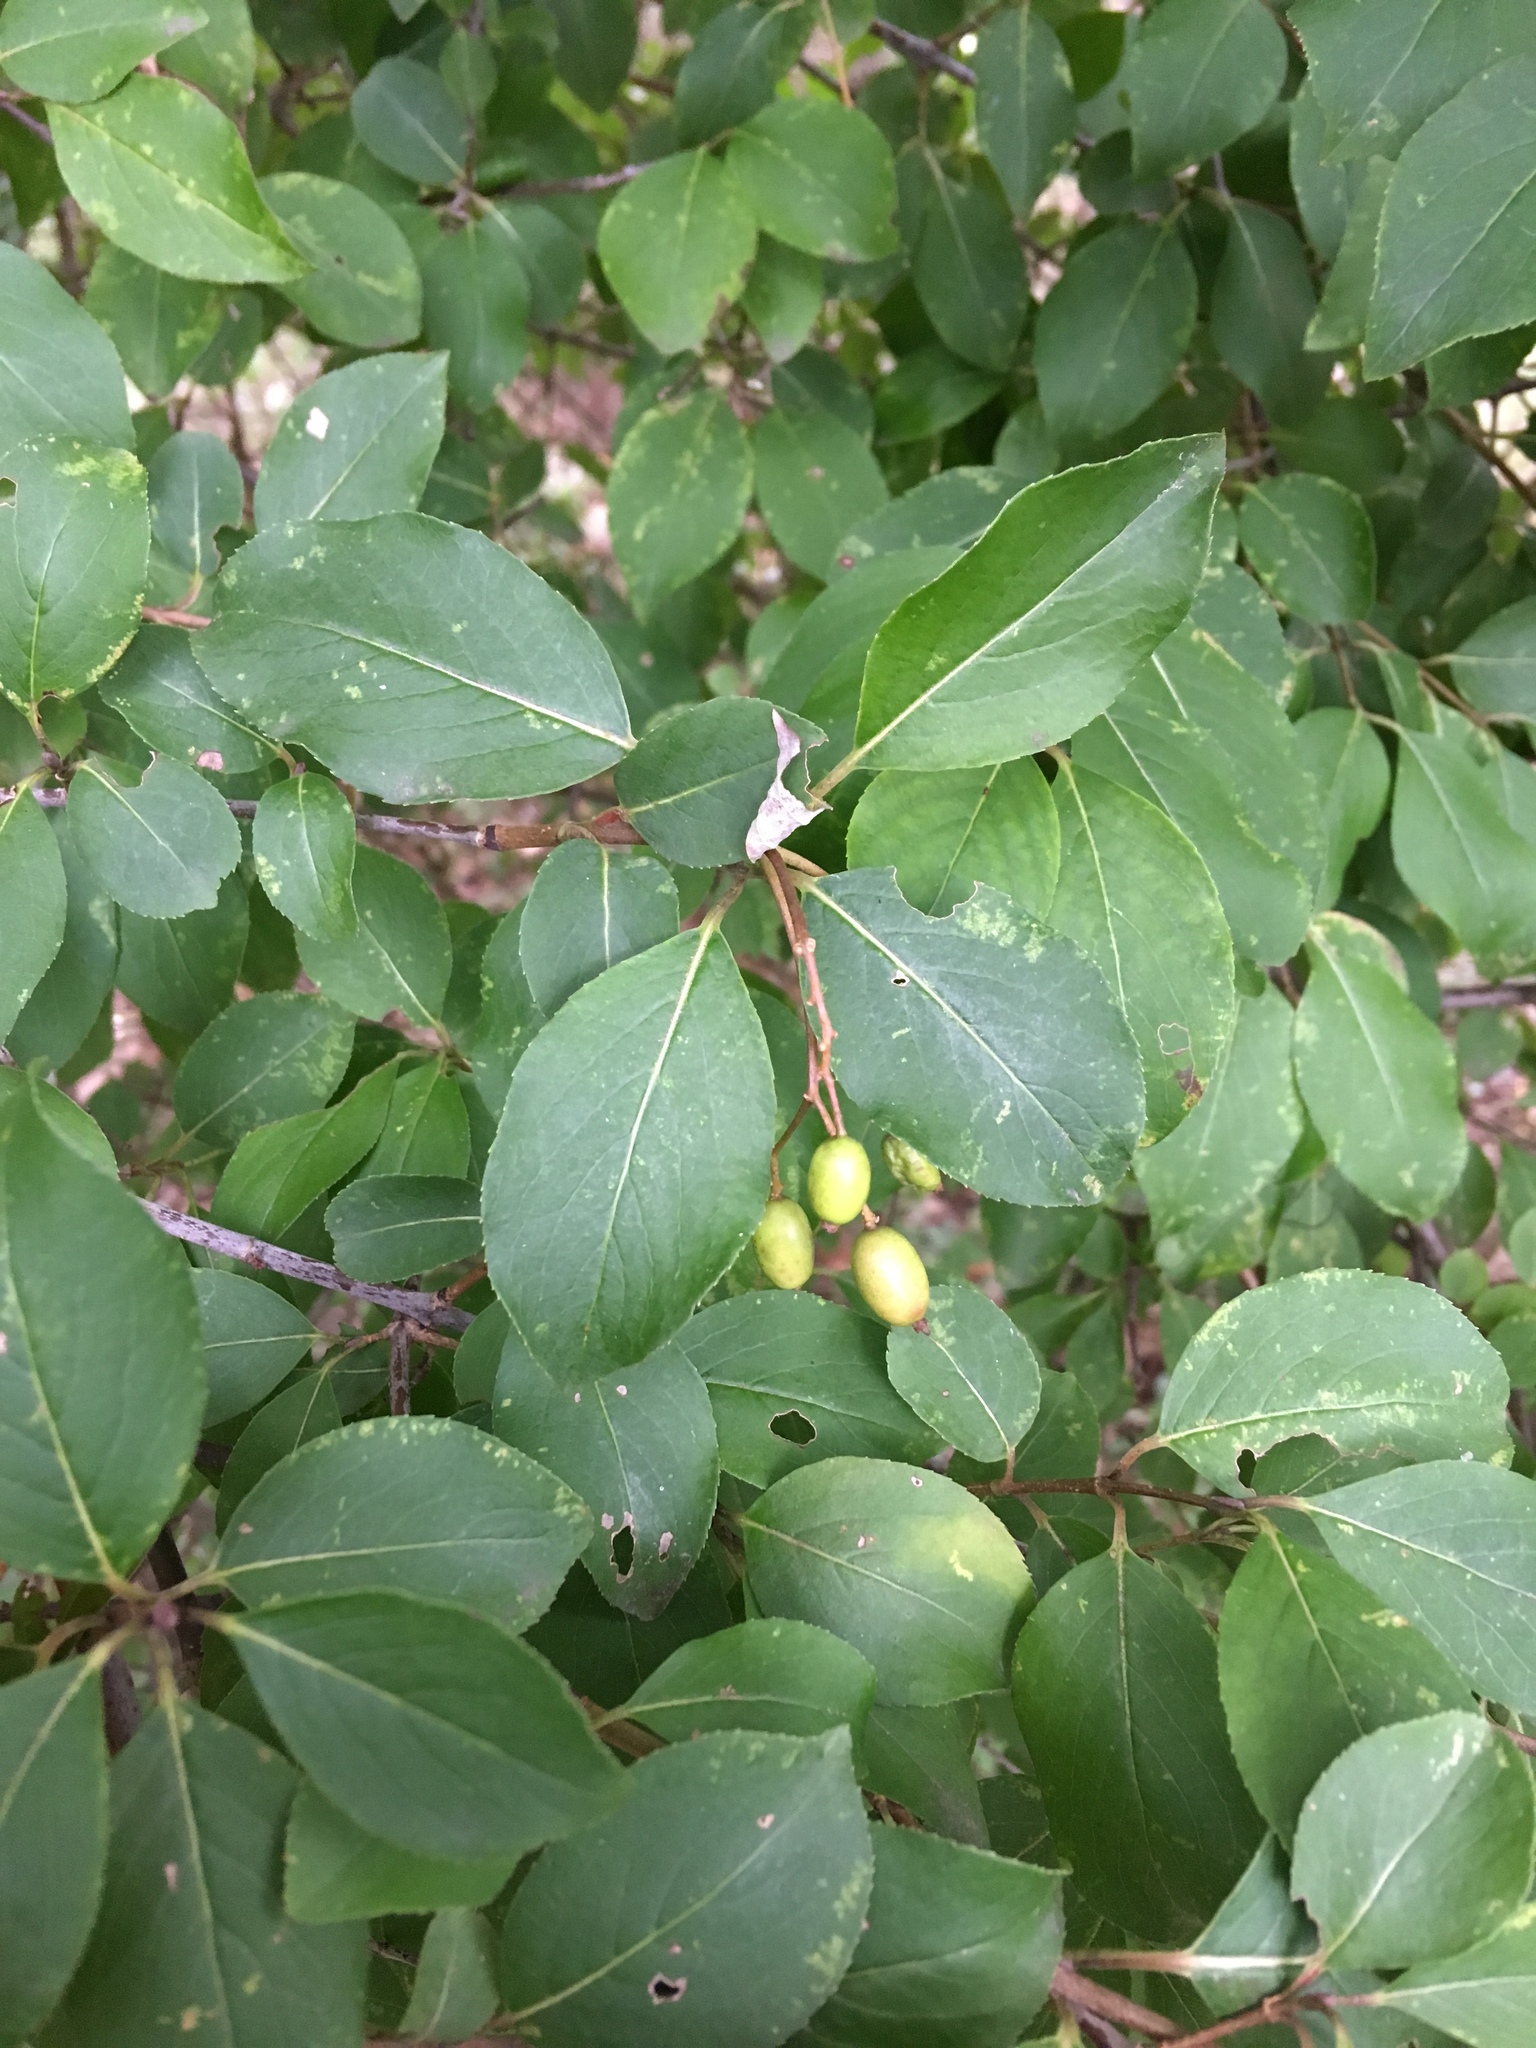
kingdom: Plantae
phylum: Tracheophyta
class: Magnoliopsida
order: Dipsacales
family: Viburnaceae
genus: Viburnum
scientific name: Viburnum prunifolium
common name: Black haw
